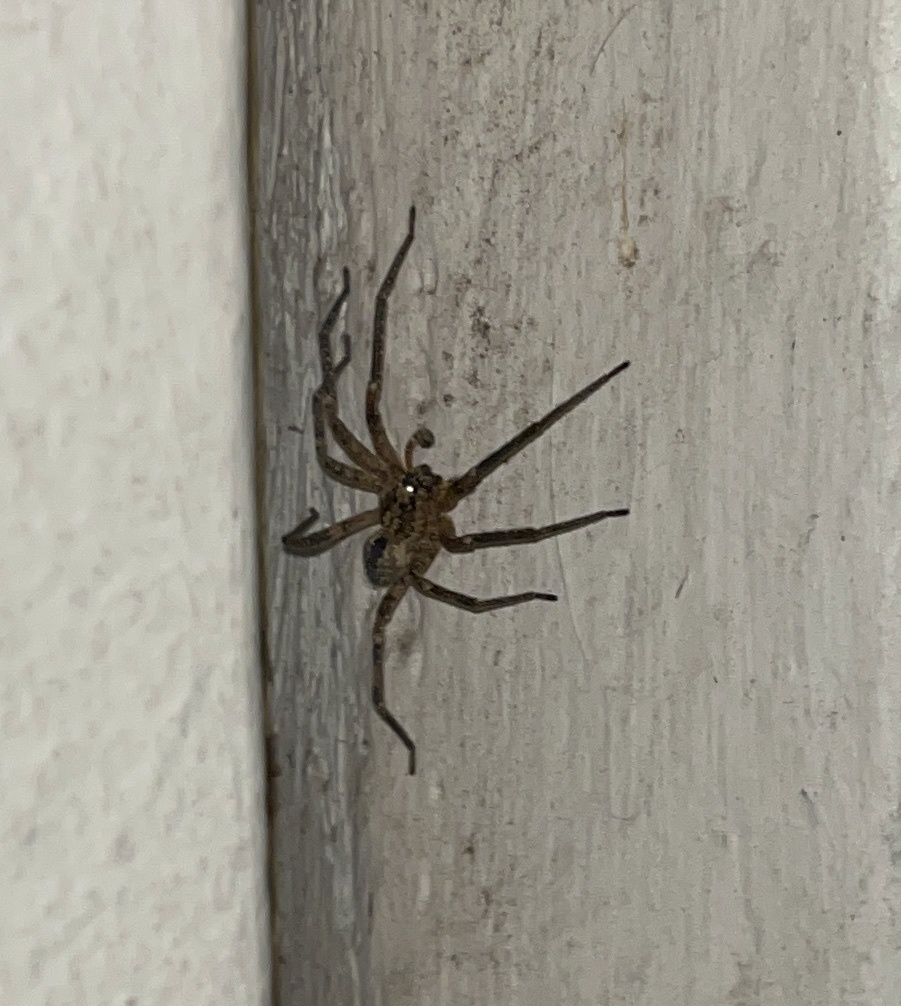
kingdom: Animalia
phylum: Arthropoda
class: Arachnida
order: Araneae
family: Zoropsidae
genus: Zoropsis
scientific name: Zoropsis spinimana
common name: Zoropsid spider
